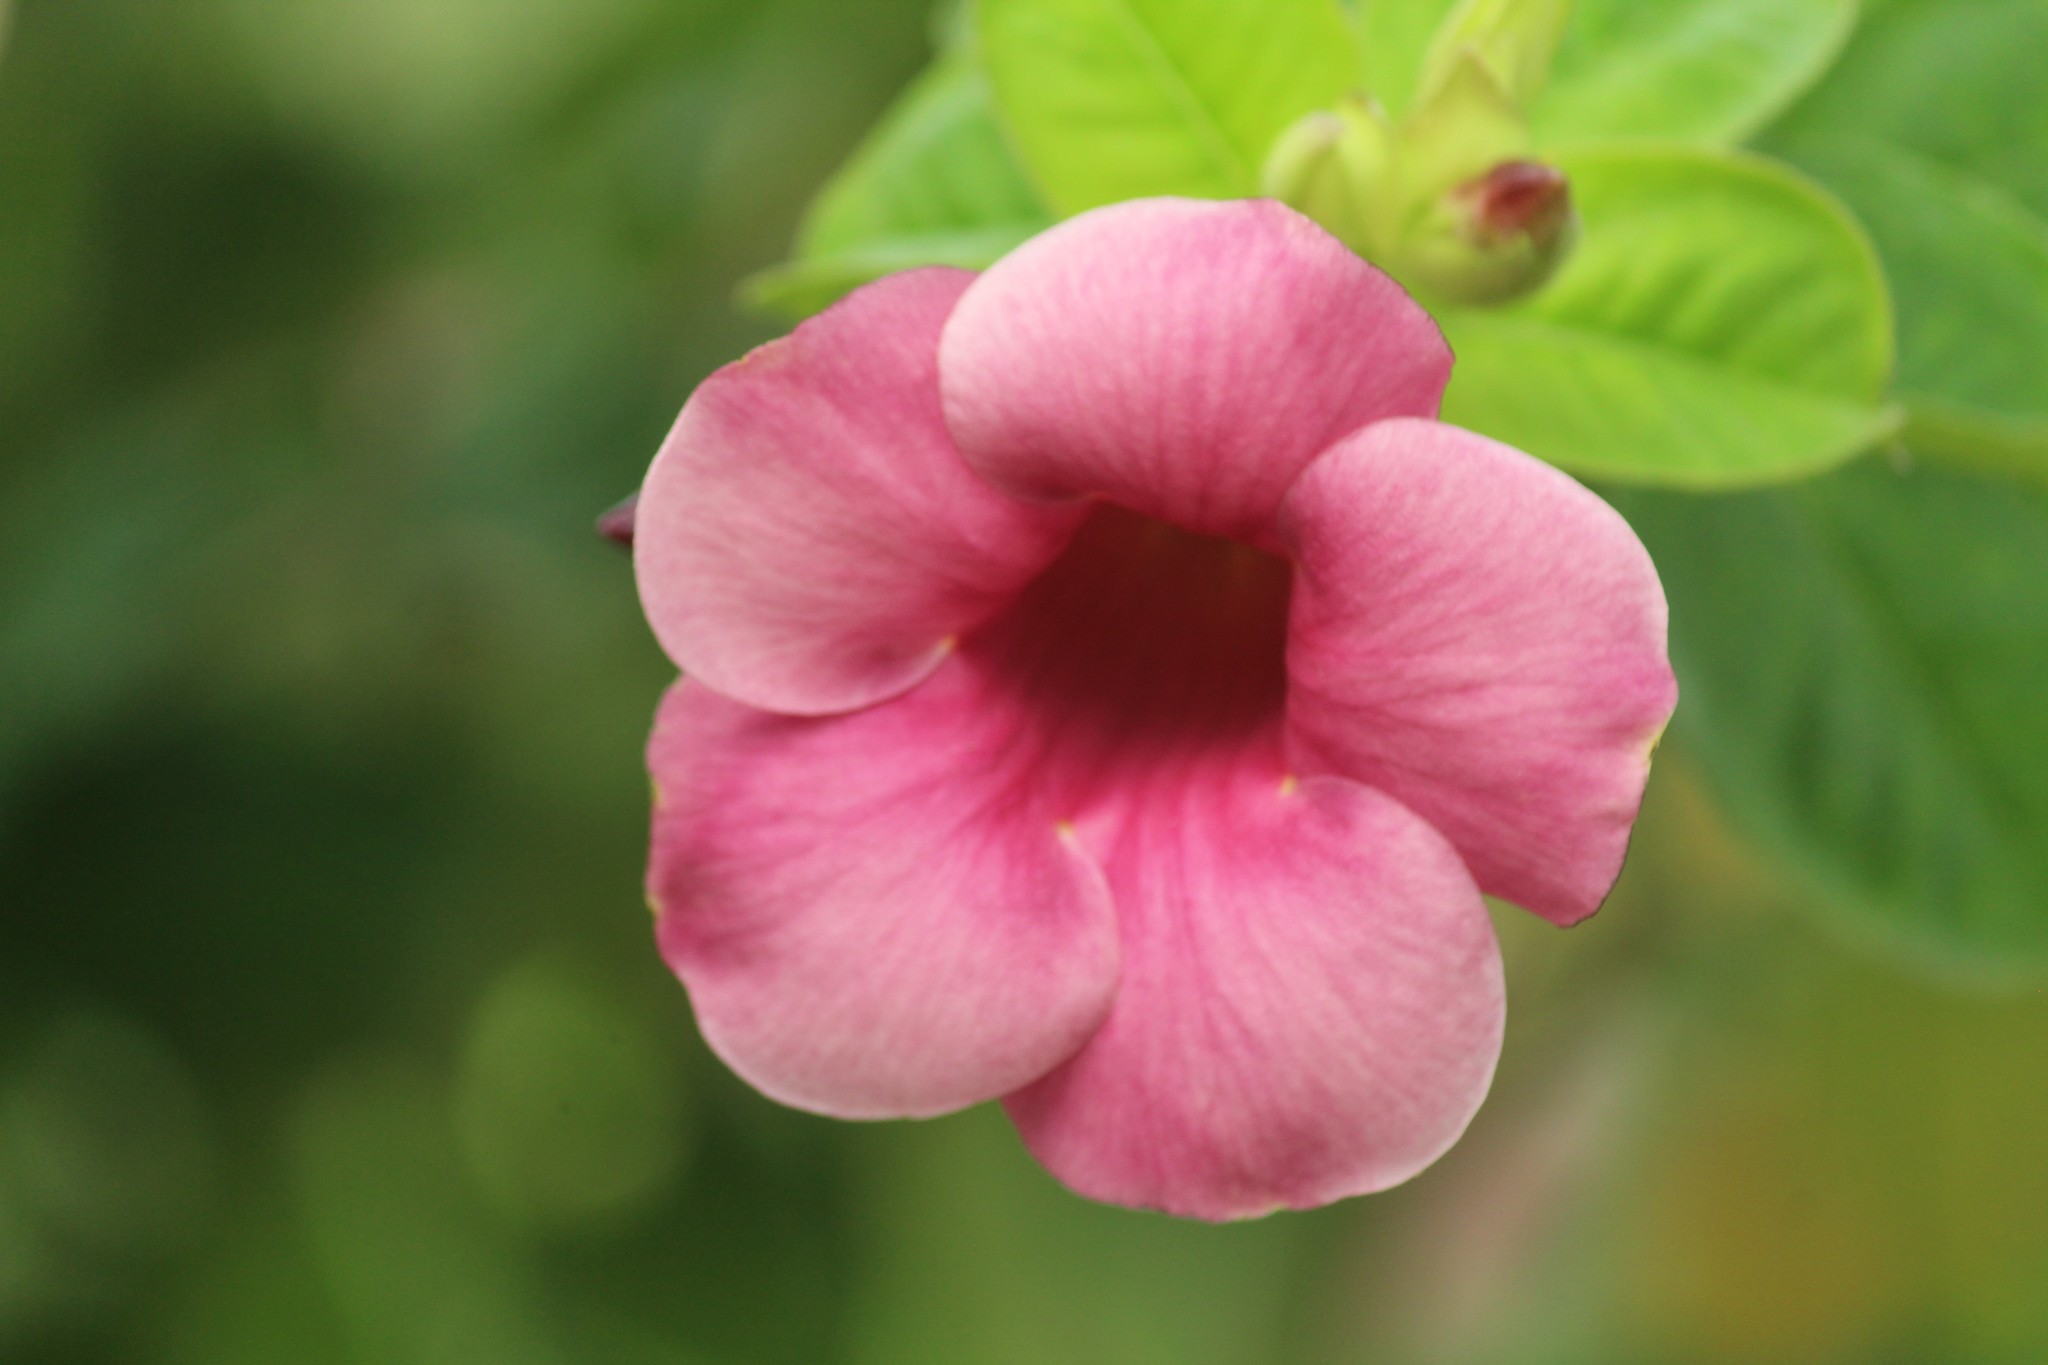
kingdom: Plantae
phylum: Tracheophyta
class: Magnoliopsida
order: Gentianales
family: Apocynaceae
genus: Allamanda
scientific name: Allamanda blanchetii
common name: Purple allamanda
